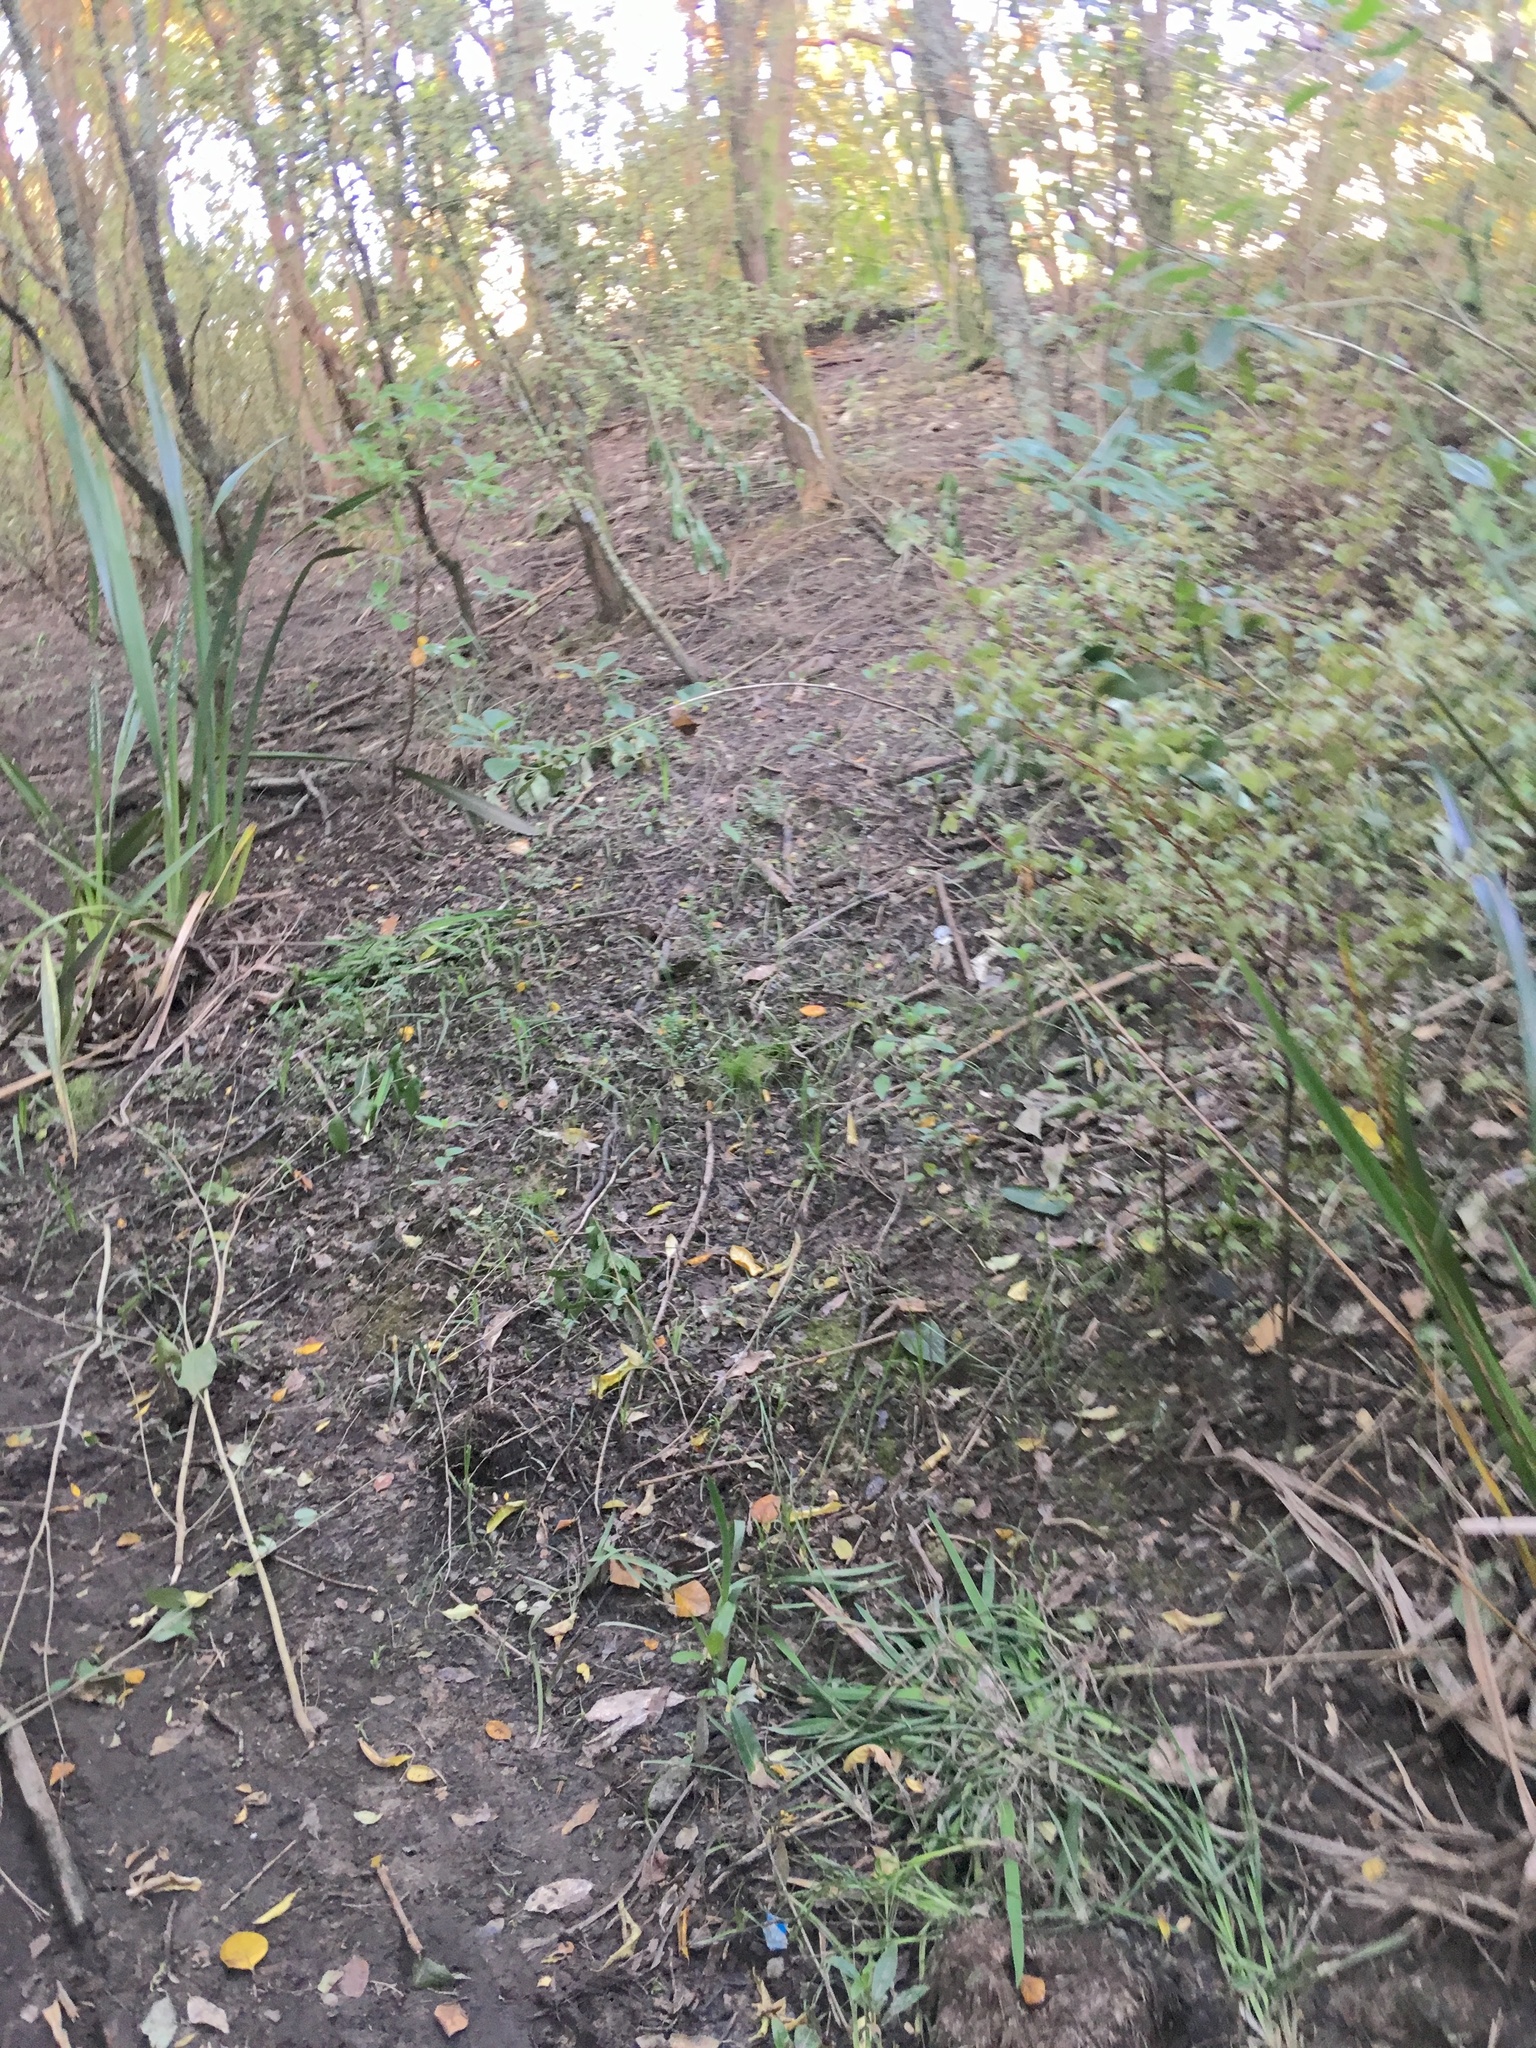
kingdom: Plantae
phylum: Tracheophyta
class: Liliopsida
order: Asparagales
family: Asphodelaceae
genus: Phormium
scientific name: Phormium tenax
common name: New zealand flax
